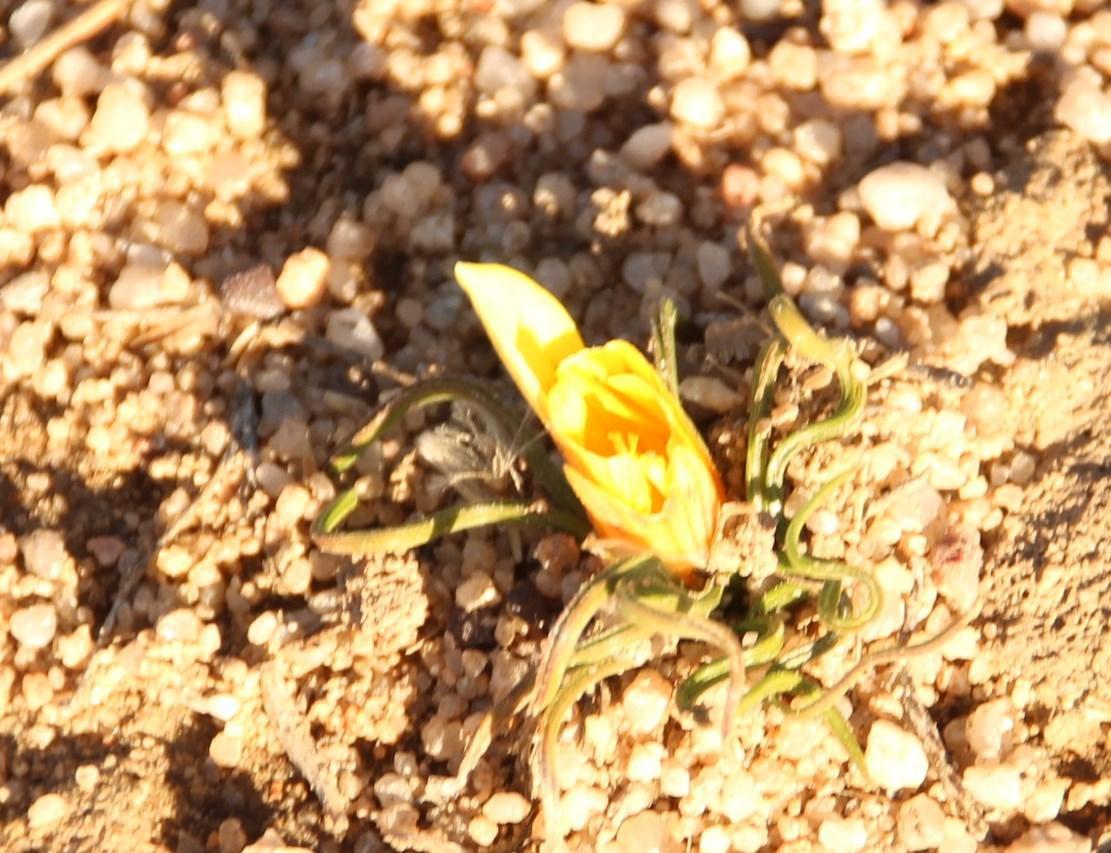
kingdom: Plantae
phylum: Tracheophyta
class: Liliopsida
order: Asparagales
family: Iridaceae
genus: Romulea
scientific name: Romulea tortuosa
